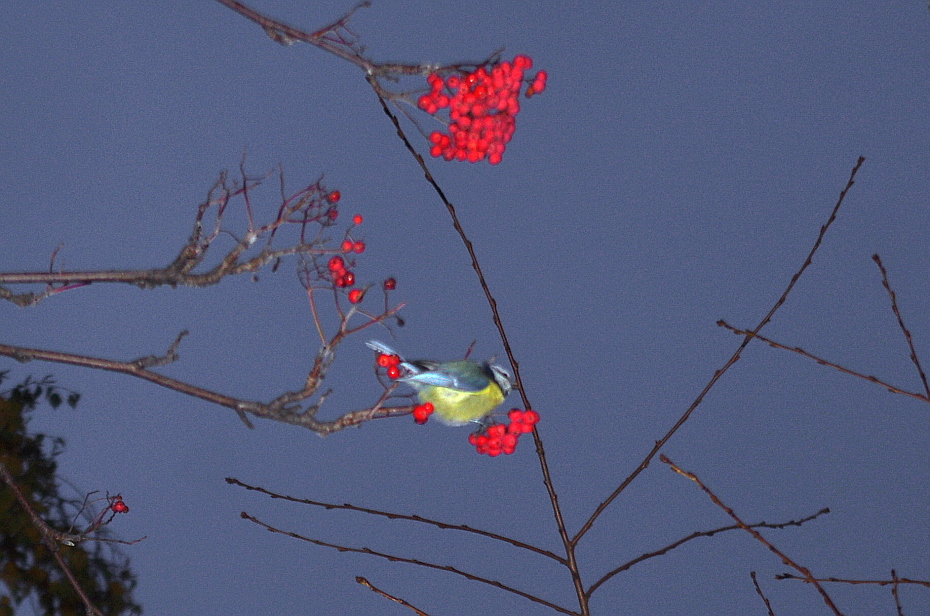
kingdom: Animalia
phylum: Chordata
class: Aves
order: Passeriformes
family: Paridae
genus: Cyanistes
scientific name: Cyanistes caeruleus
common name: Eurasian blue tit
